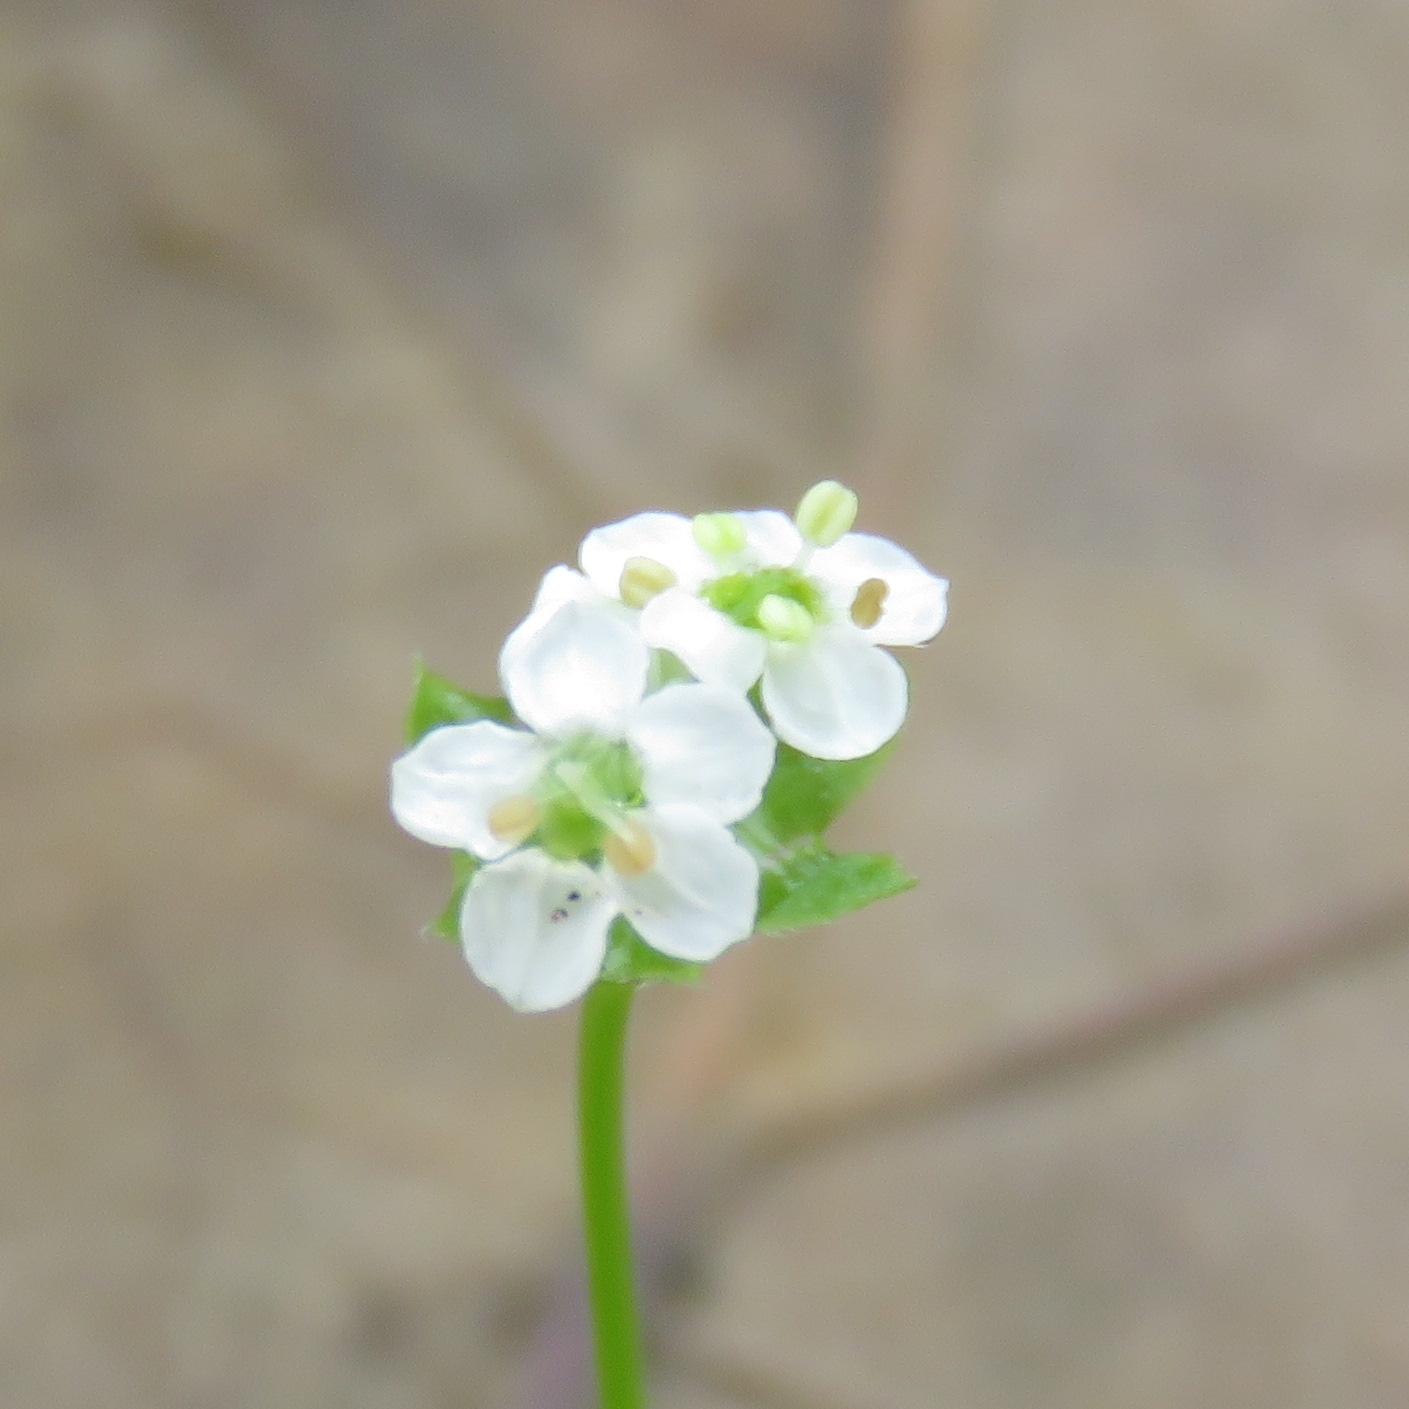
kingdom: Plantae
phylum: Tracheophyta
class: Magnoliopsida
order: Apiales
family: Apiaceae
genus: Chaerophyllum
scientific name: Chaerophyllum tainturieri
